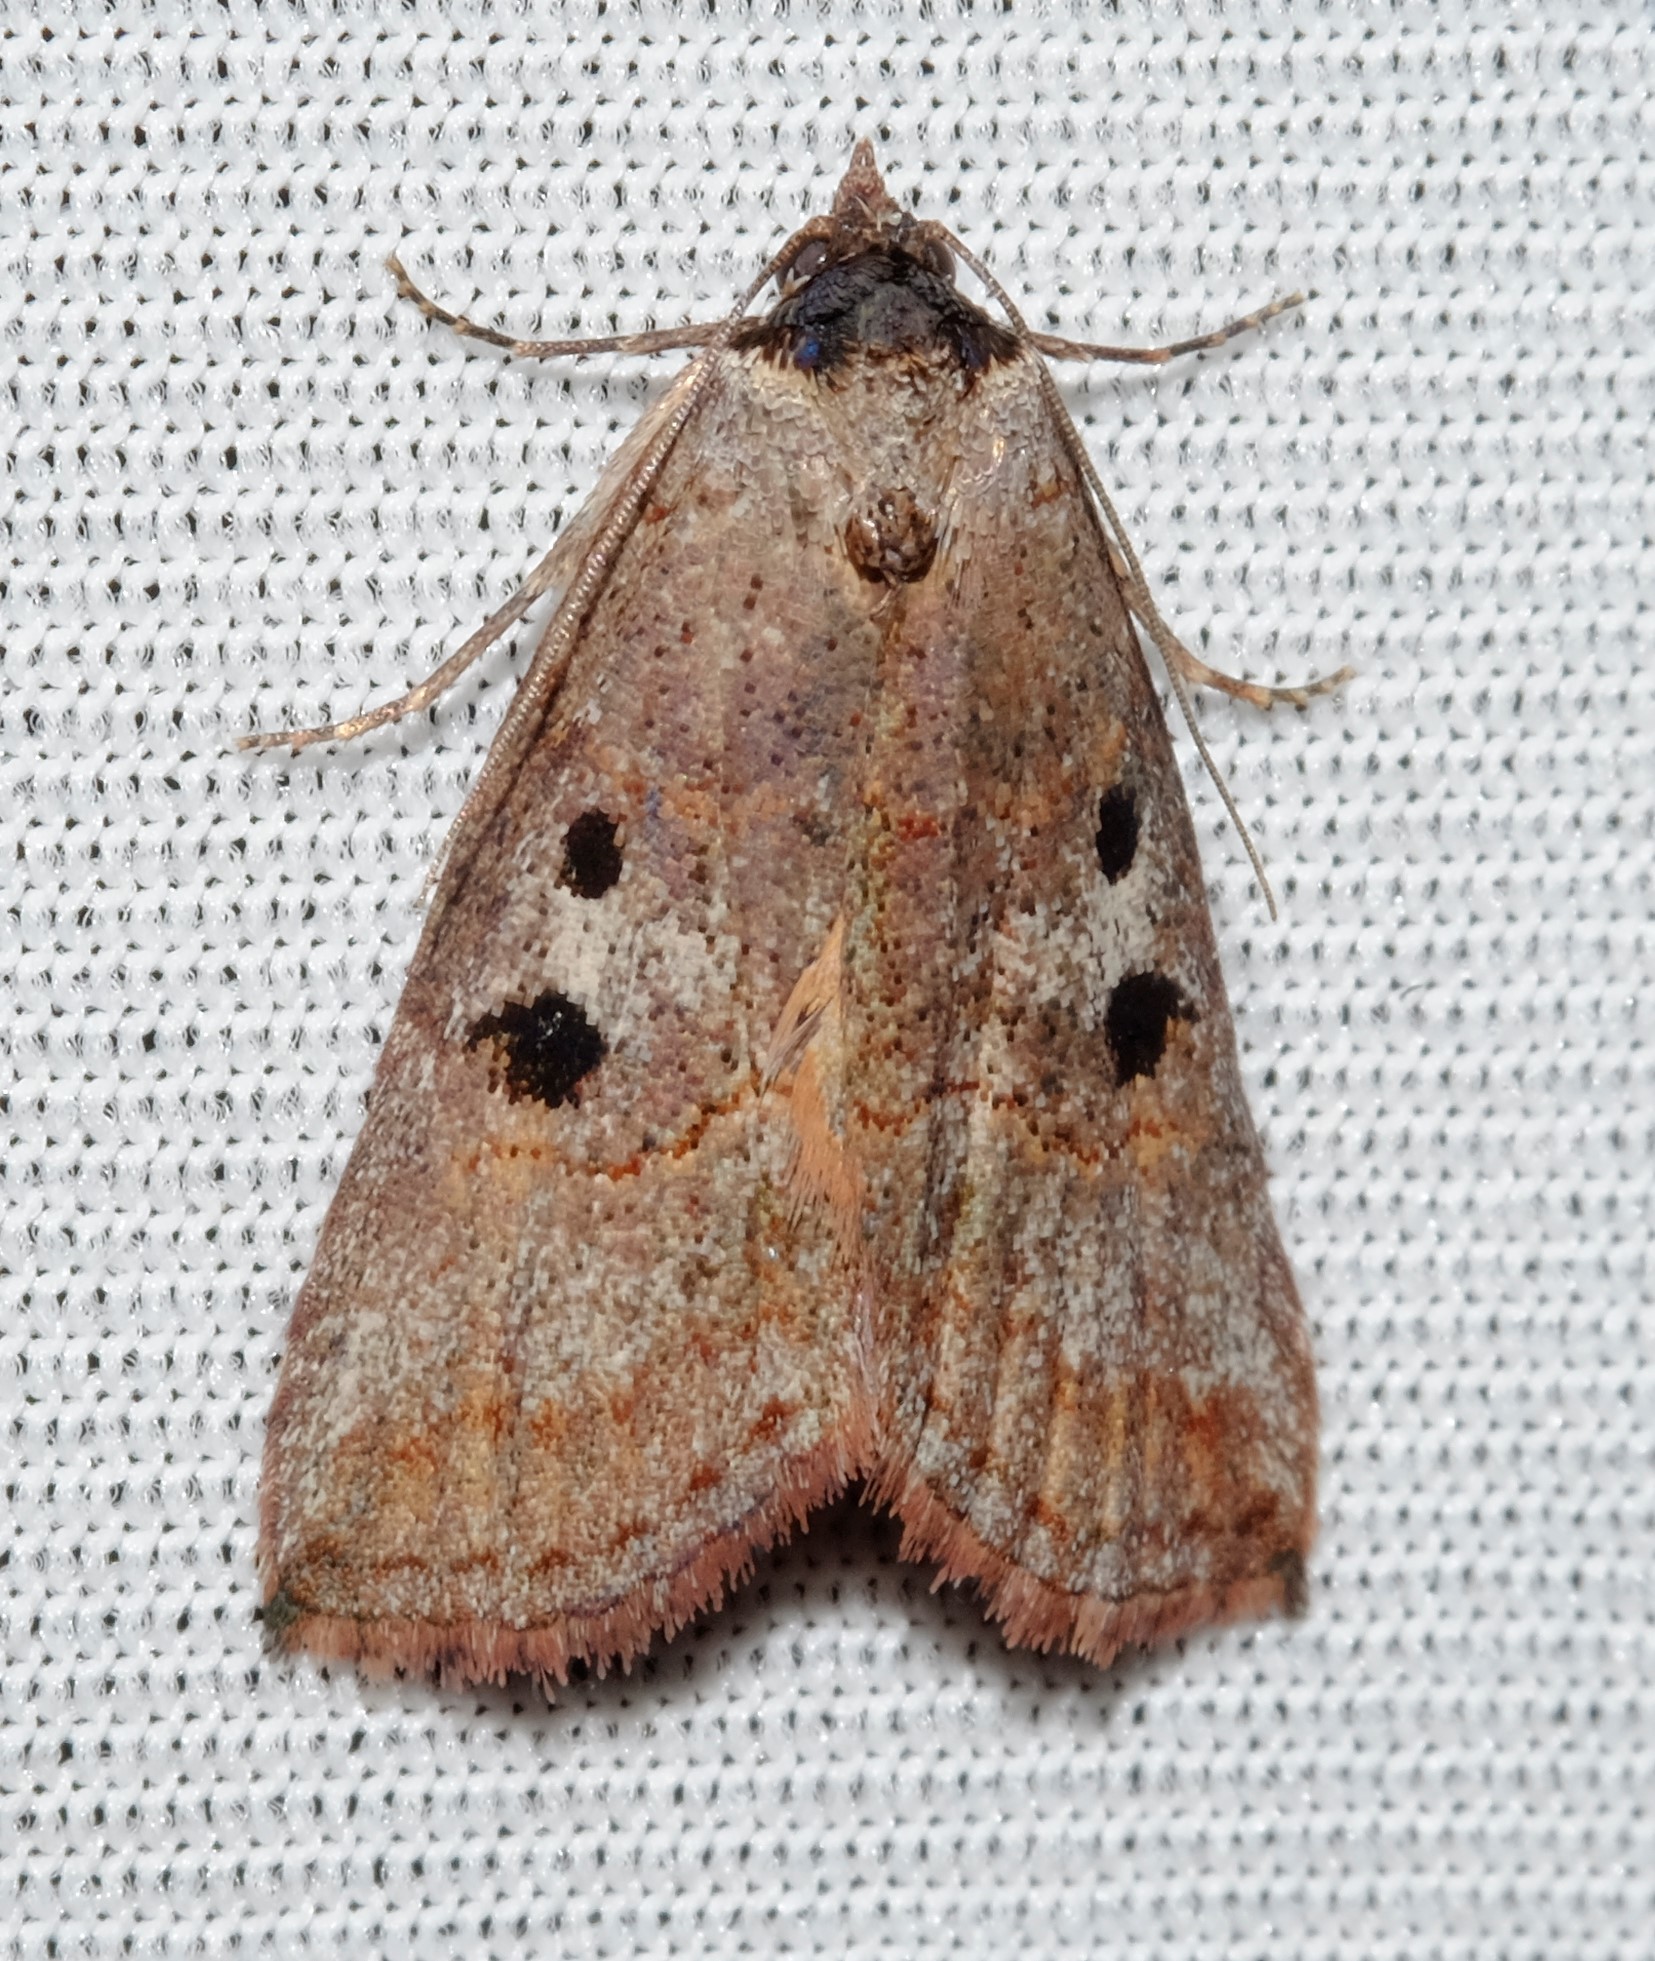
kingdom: Animalia
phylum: Arthropoda
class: Insecta
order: Lepidoptera
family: Nolidae
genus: Calathusa
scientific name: Calathusa hypotherma
